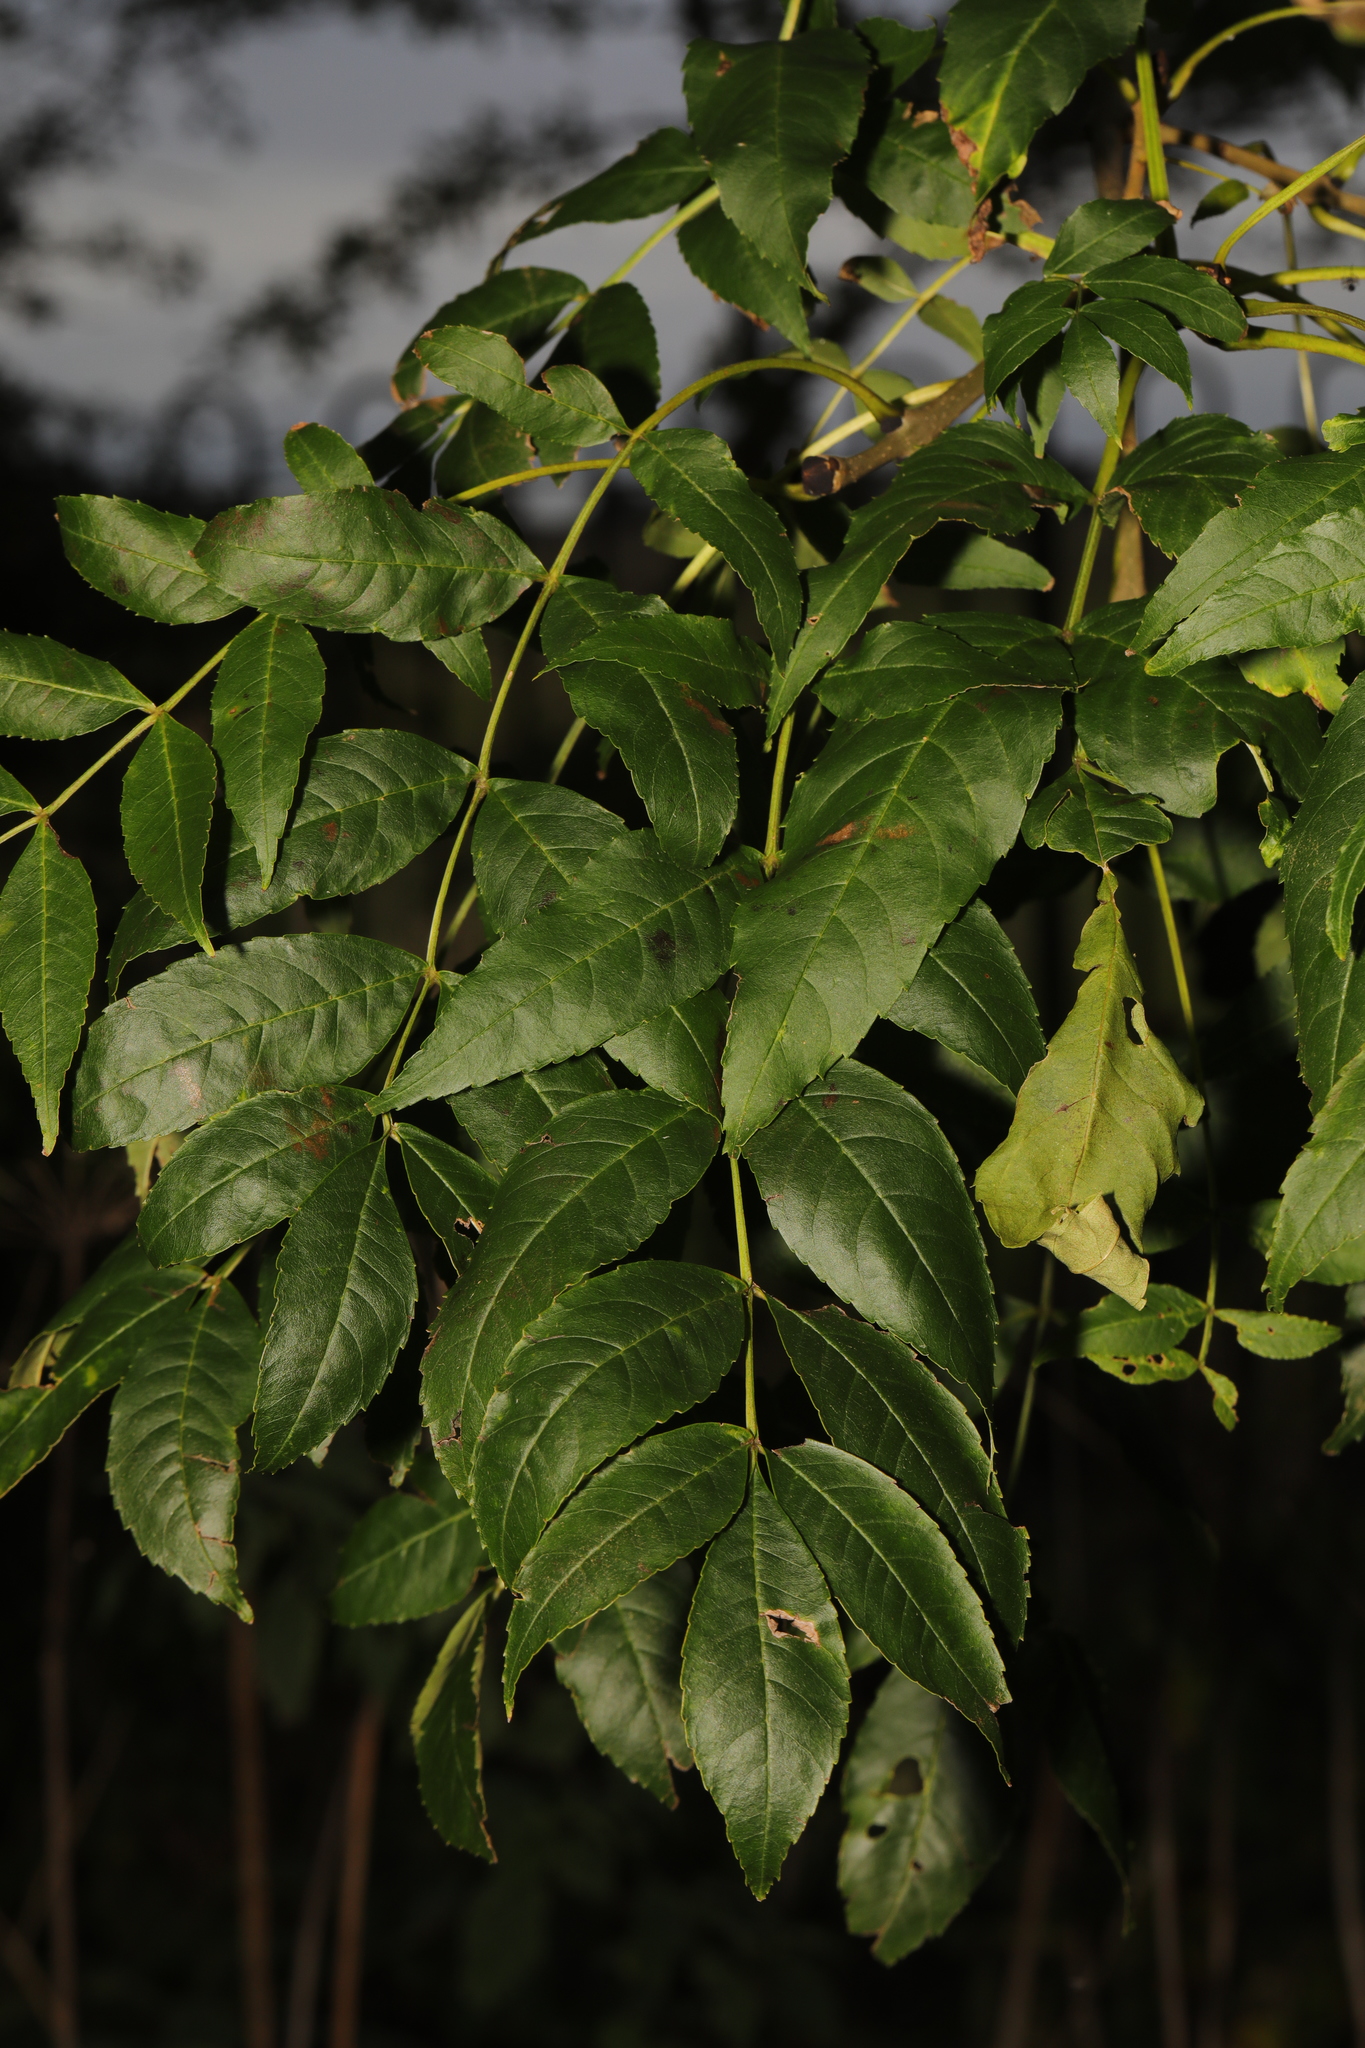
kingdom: Plantae
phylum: Tracheophyta
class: Magnoliopsida
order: Lamiales
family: Oleaceae
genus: Fraxinus
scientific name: Fraxinus excelsior
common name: European ash
